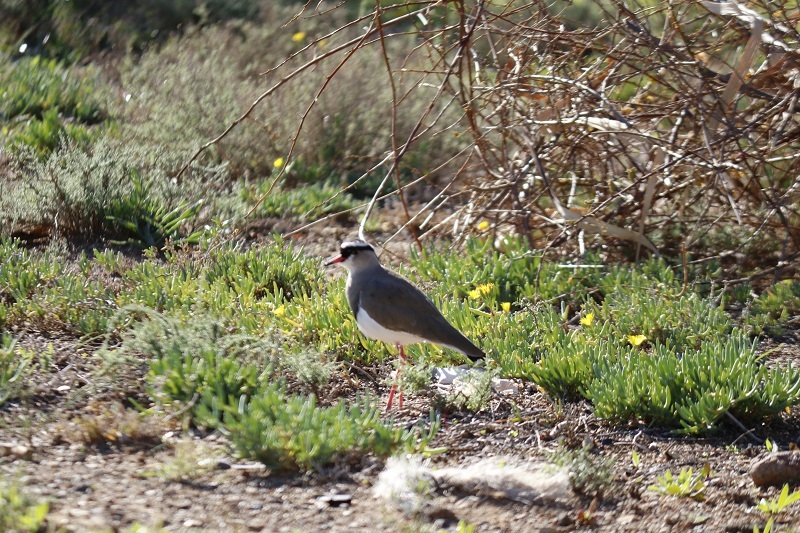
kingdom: Animalia
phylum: Chordata
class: Aves
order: Charadriiformes
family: Charadriidae
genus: Vanellus
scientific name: Vanellus coronatus
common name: Crowned lapwing
